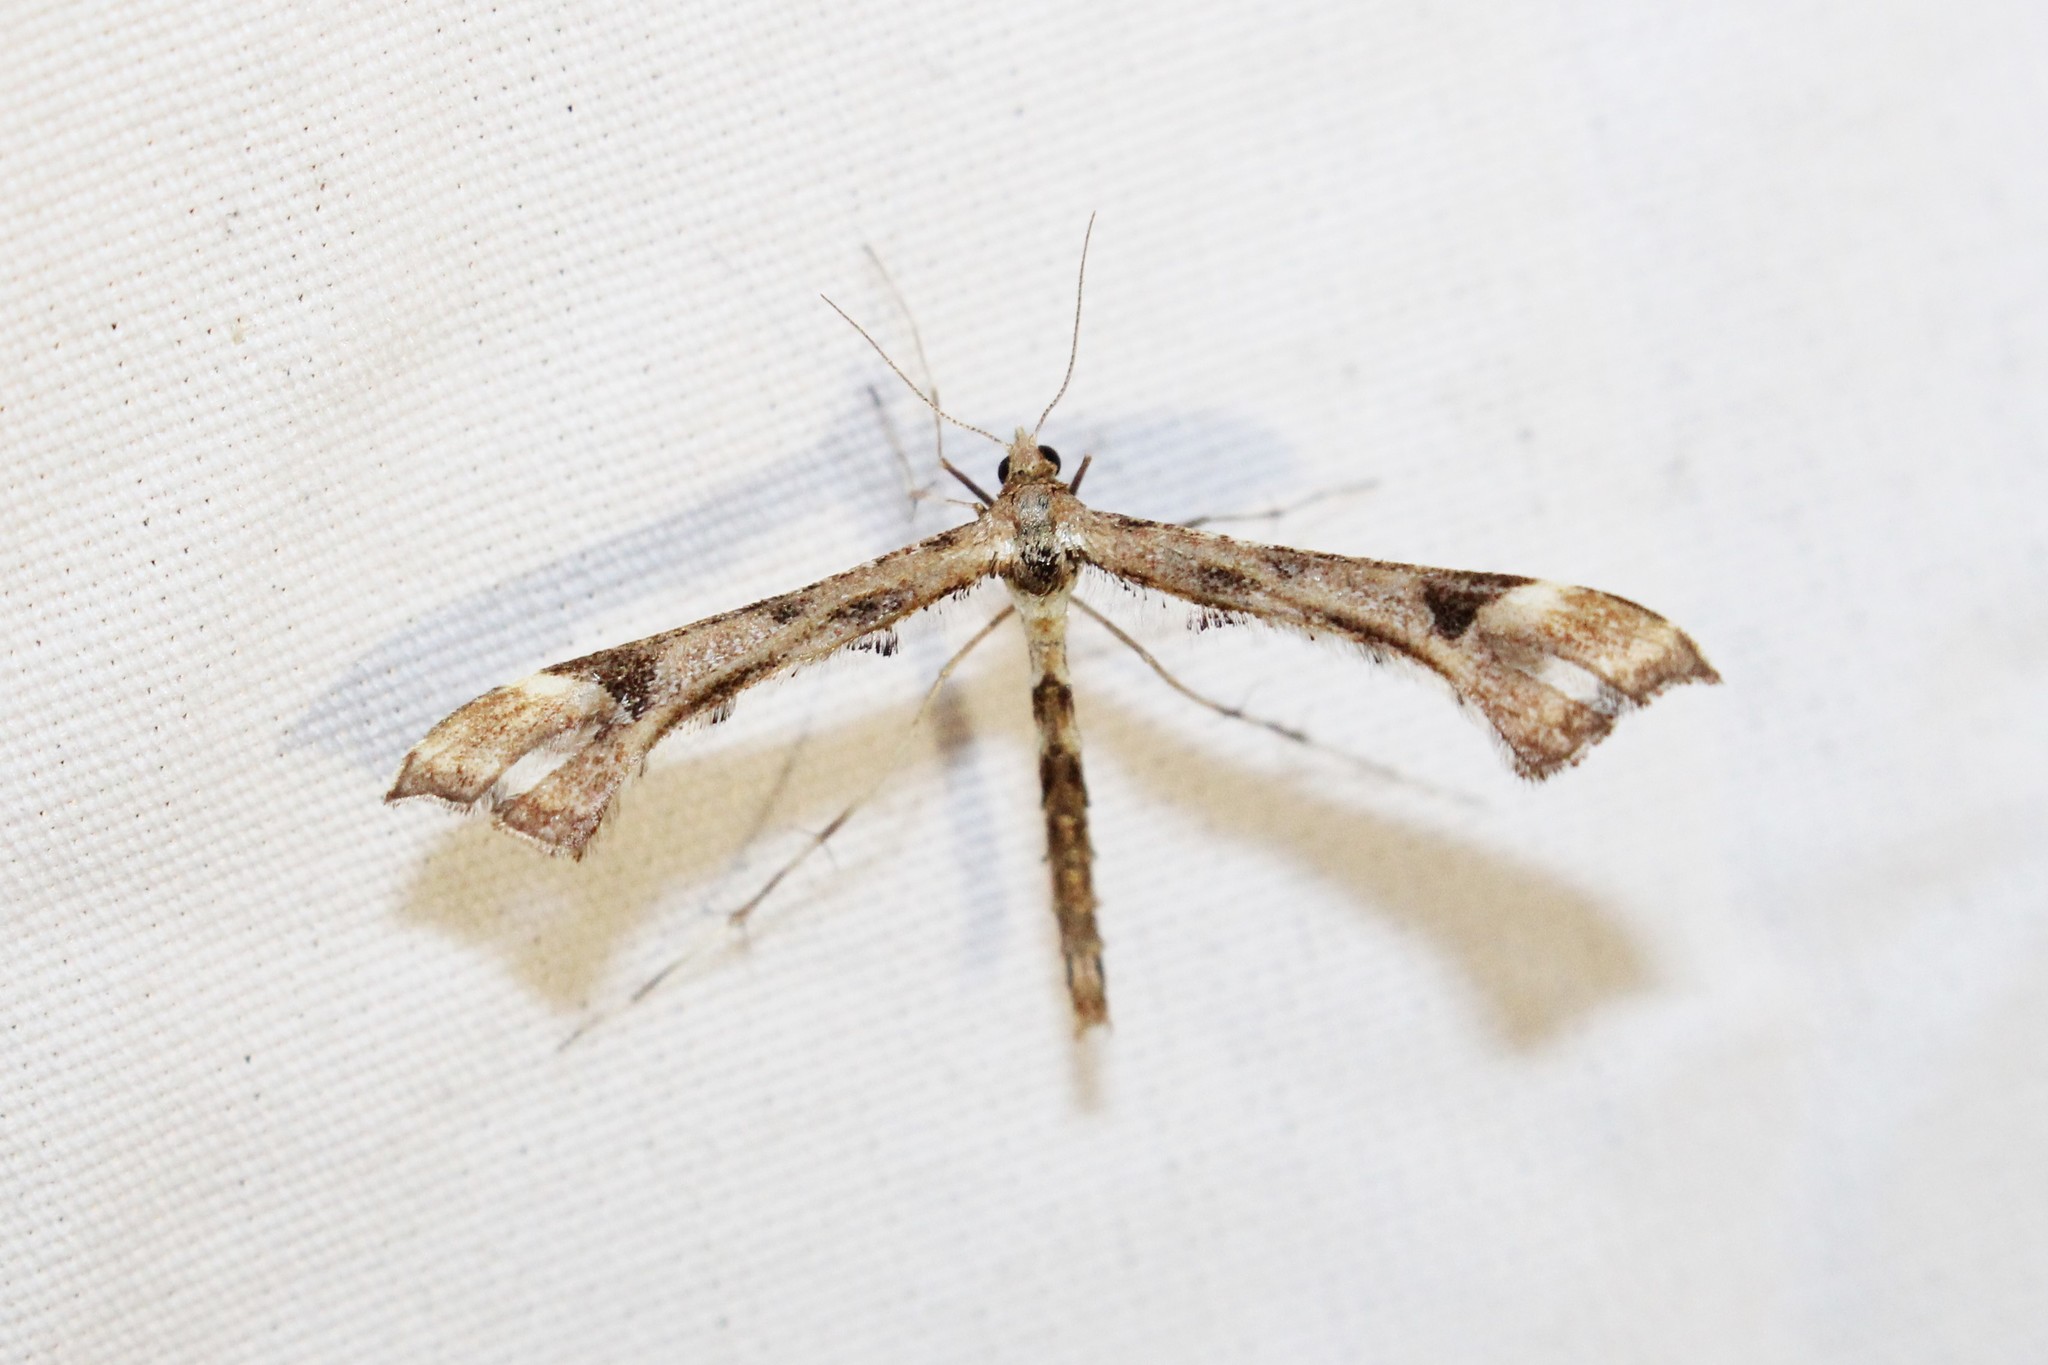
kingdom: Animalia
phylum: Arthropoda
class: Insecta
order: Lepidoptera
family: Pterophoridae
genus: Platyptilia
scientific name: Platyptilia carduidactylus
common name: Artichoke plume moth
